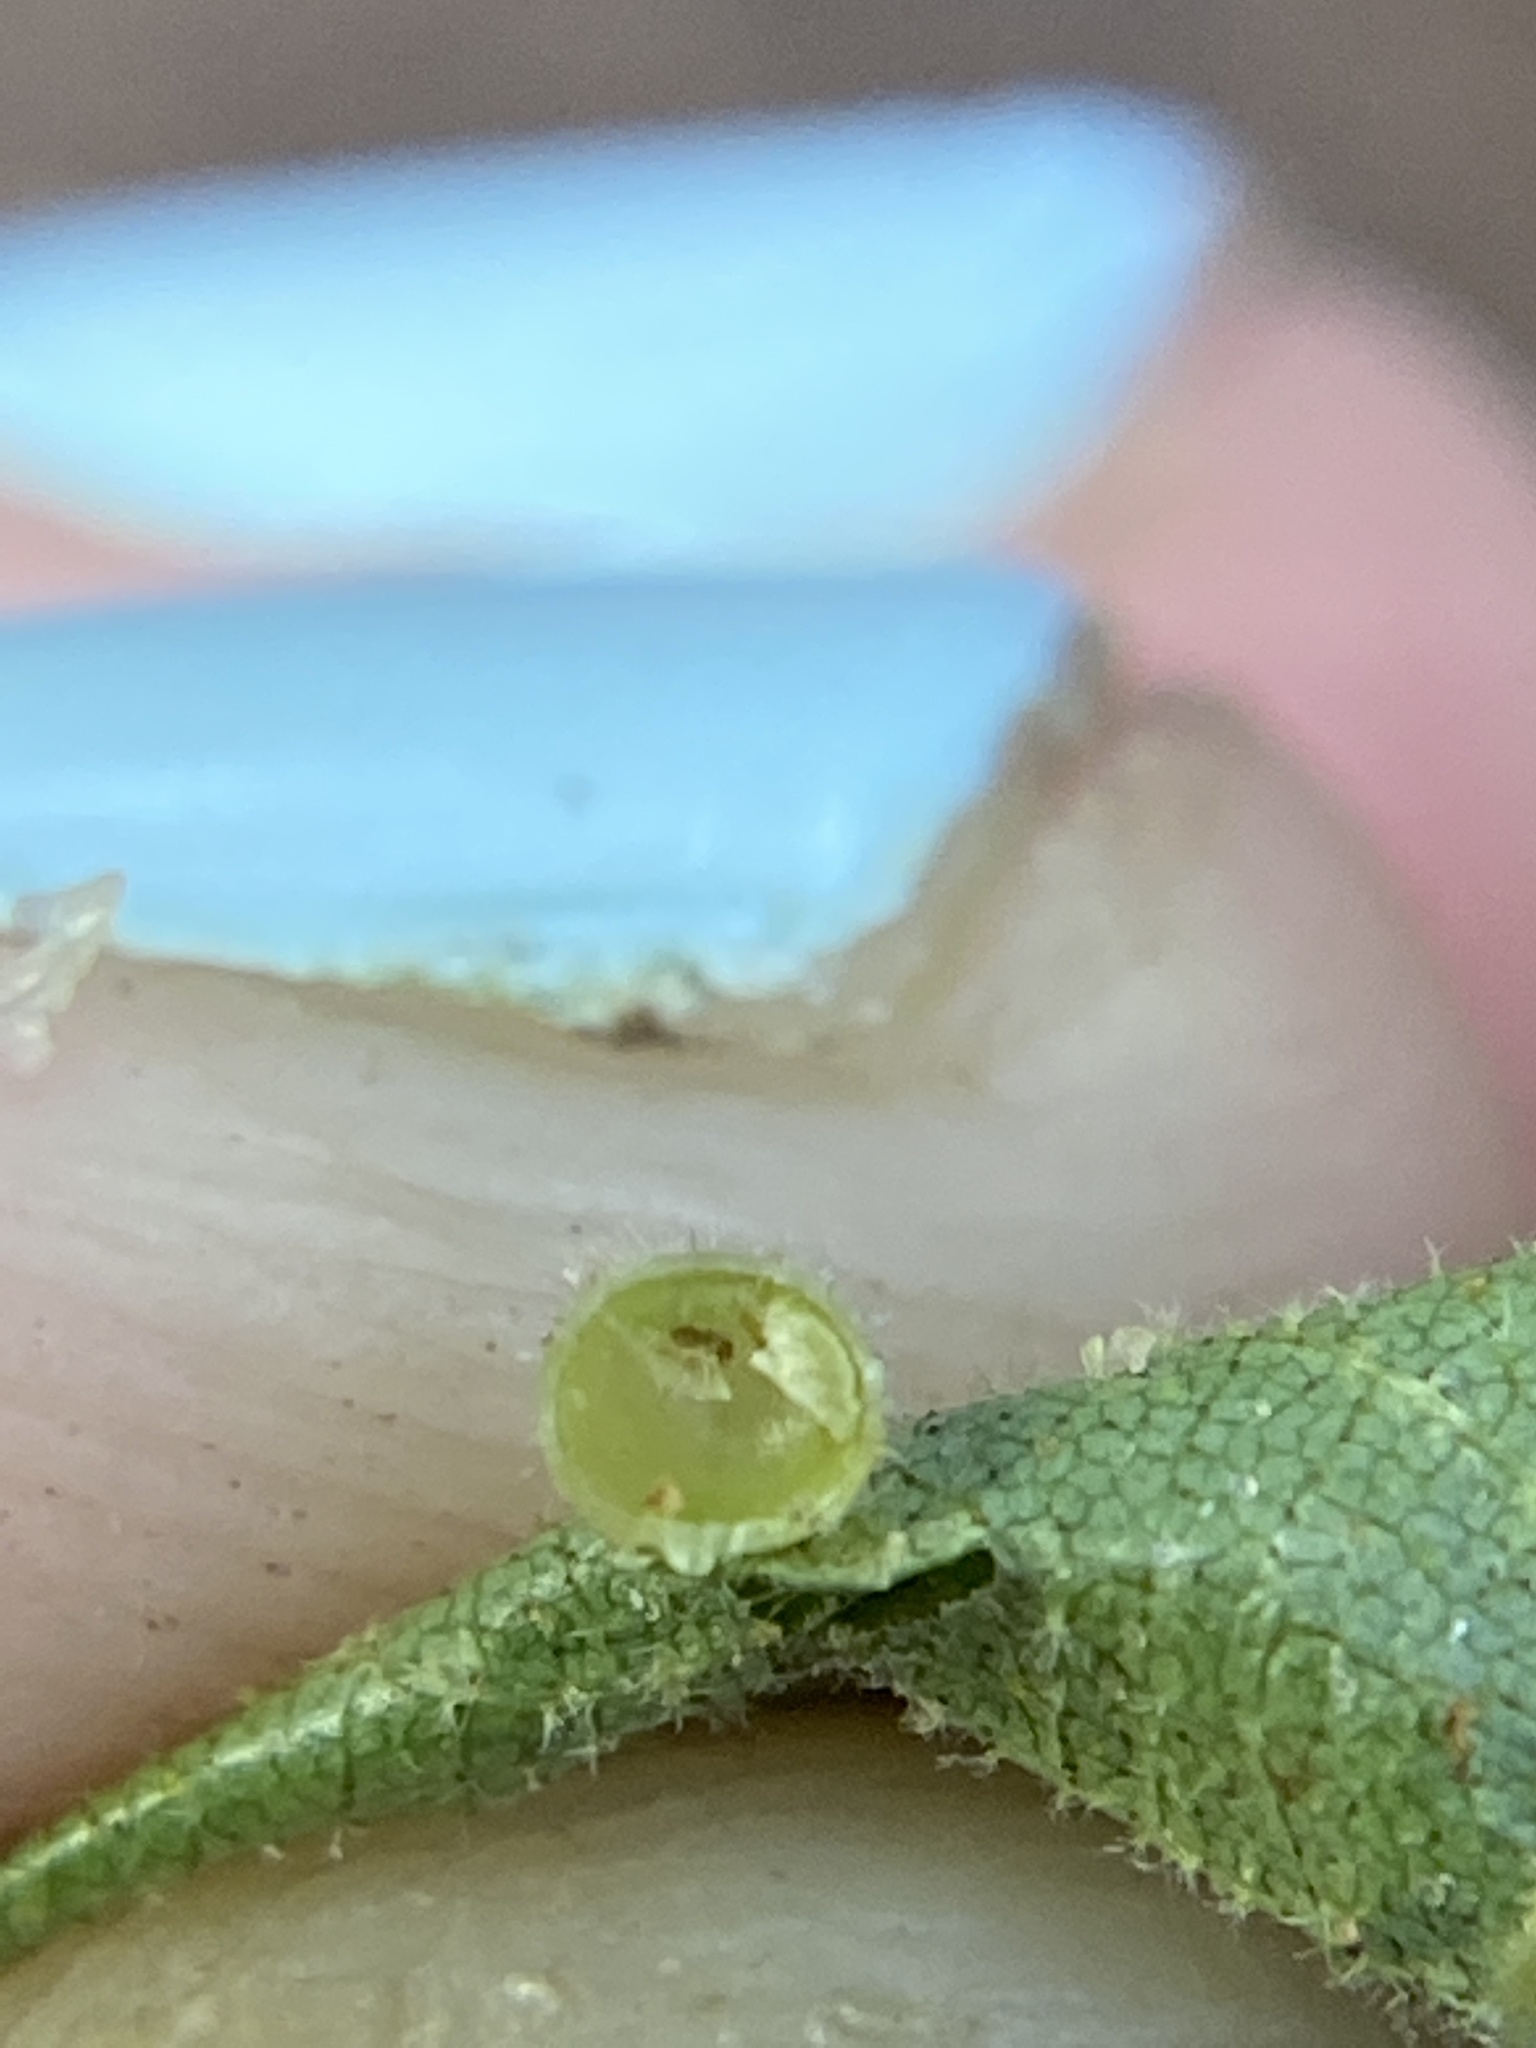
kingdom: Animalia
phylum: Arthropoda
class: Insecta
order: Diptera
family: Cecidomyiidae
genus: Caryomyia
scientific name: Caryomyia spiniglobus
